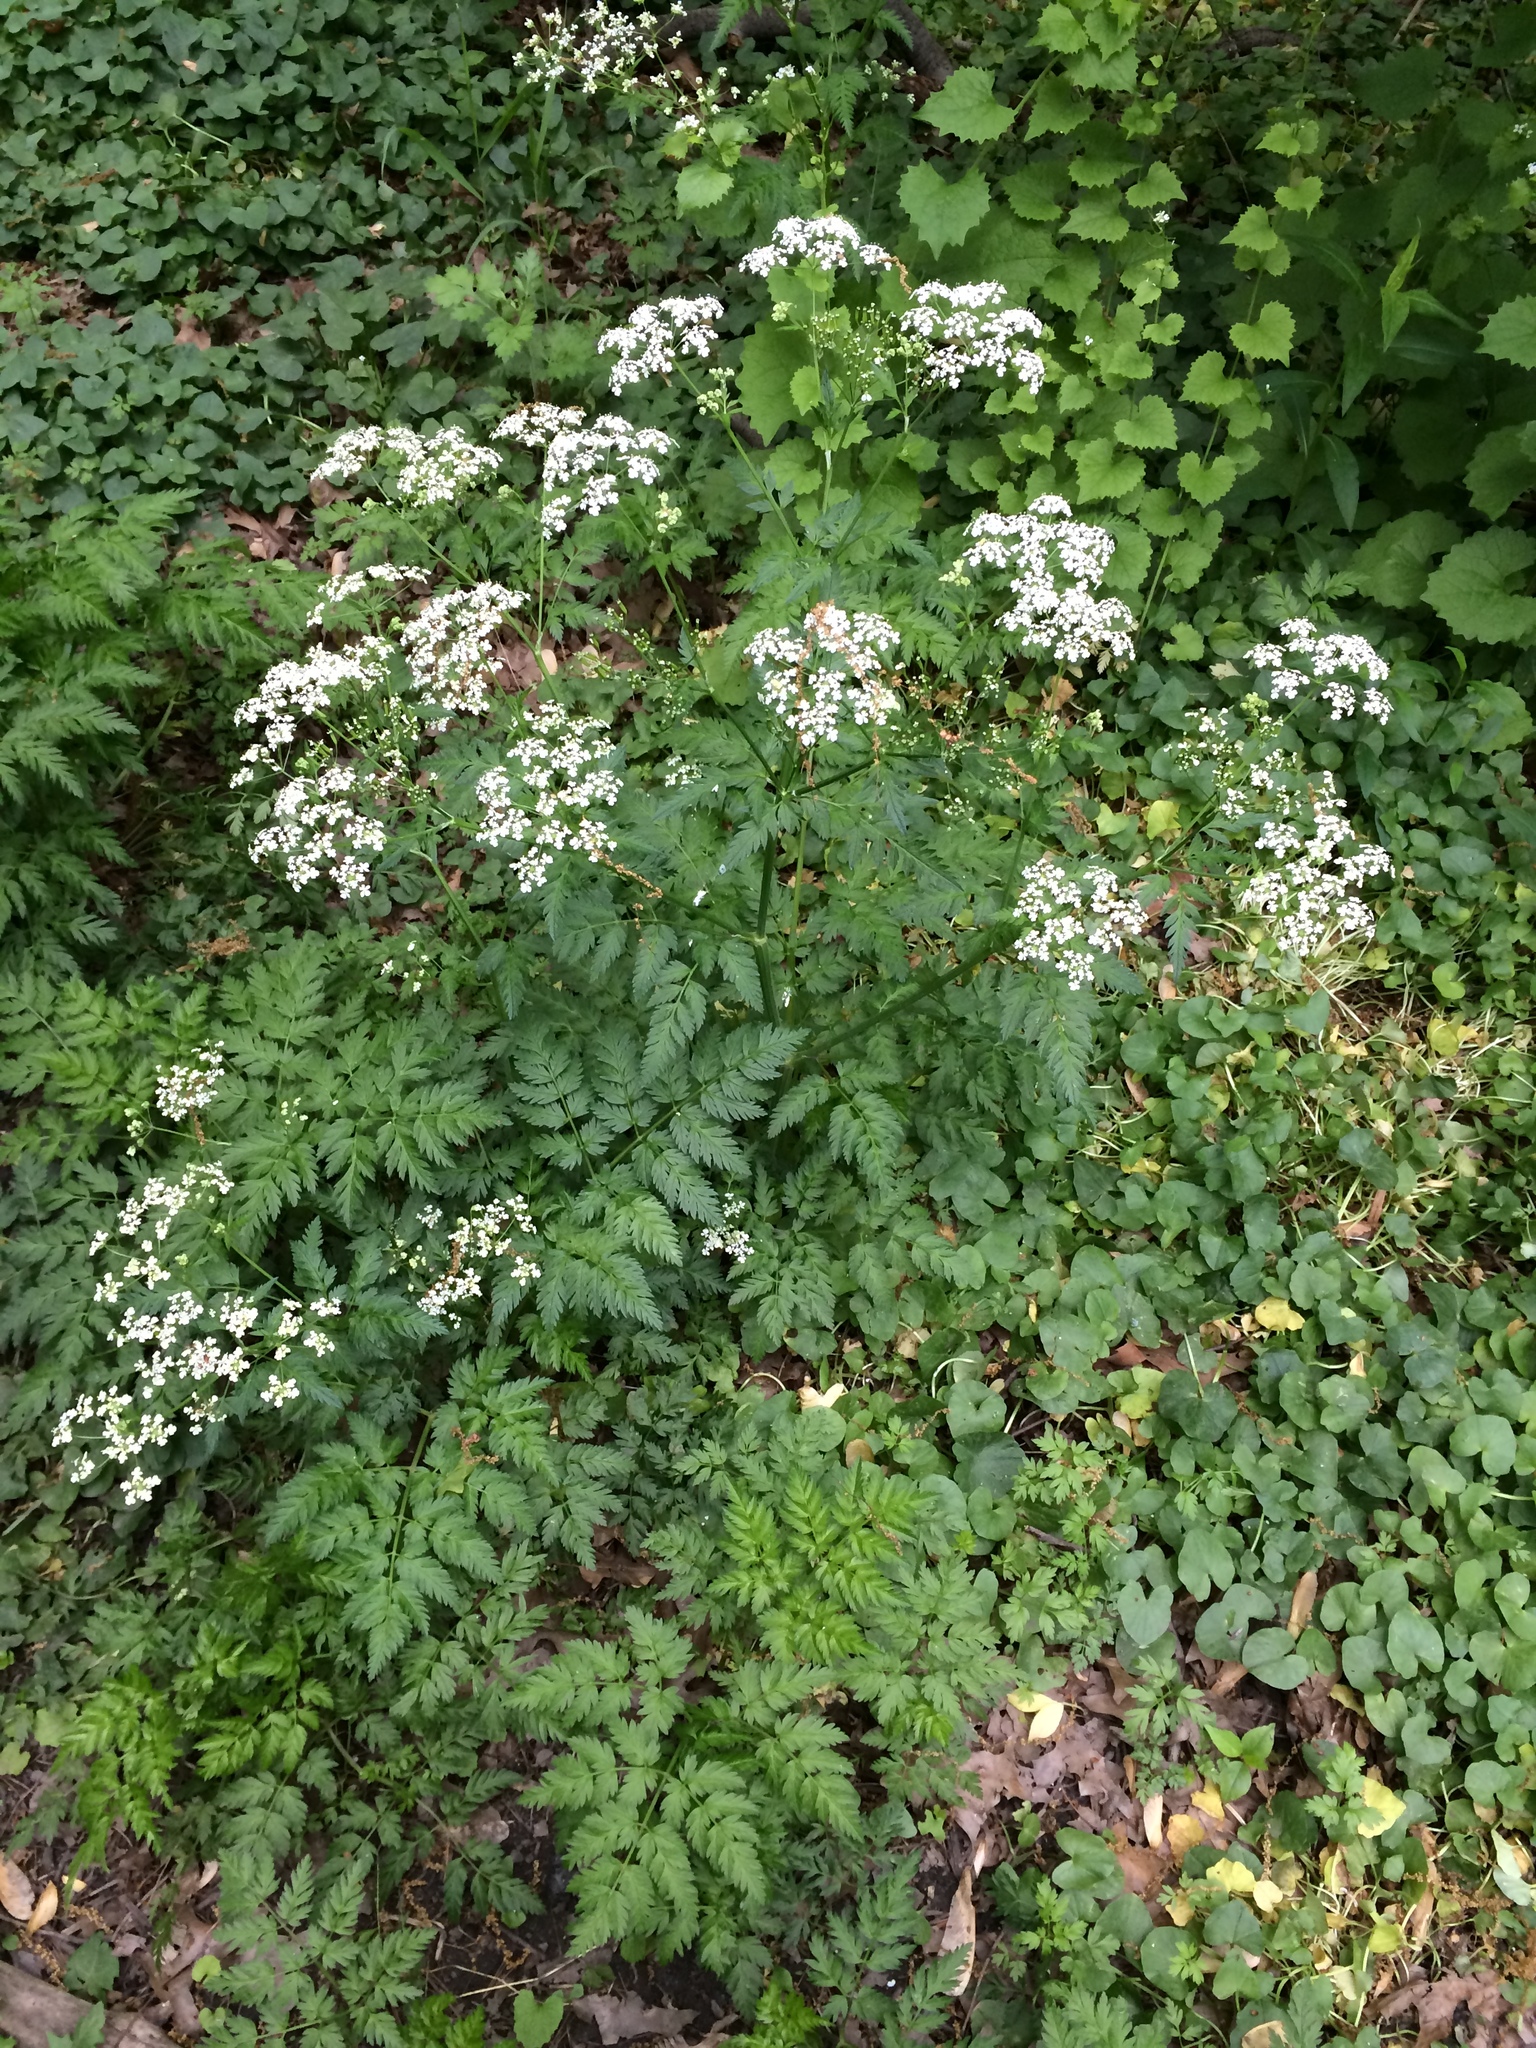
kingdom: Plantae
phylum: Tracheophyta
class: Magnoliopsida
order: Apiales
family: Apiaceae
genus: Anthriscus
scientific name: Anthriscus sylvestris
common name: Cow parsley
